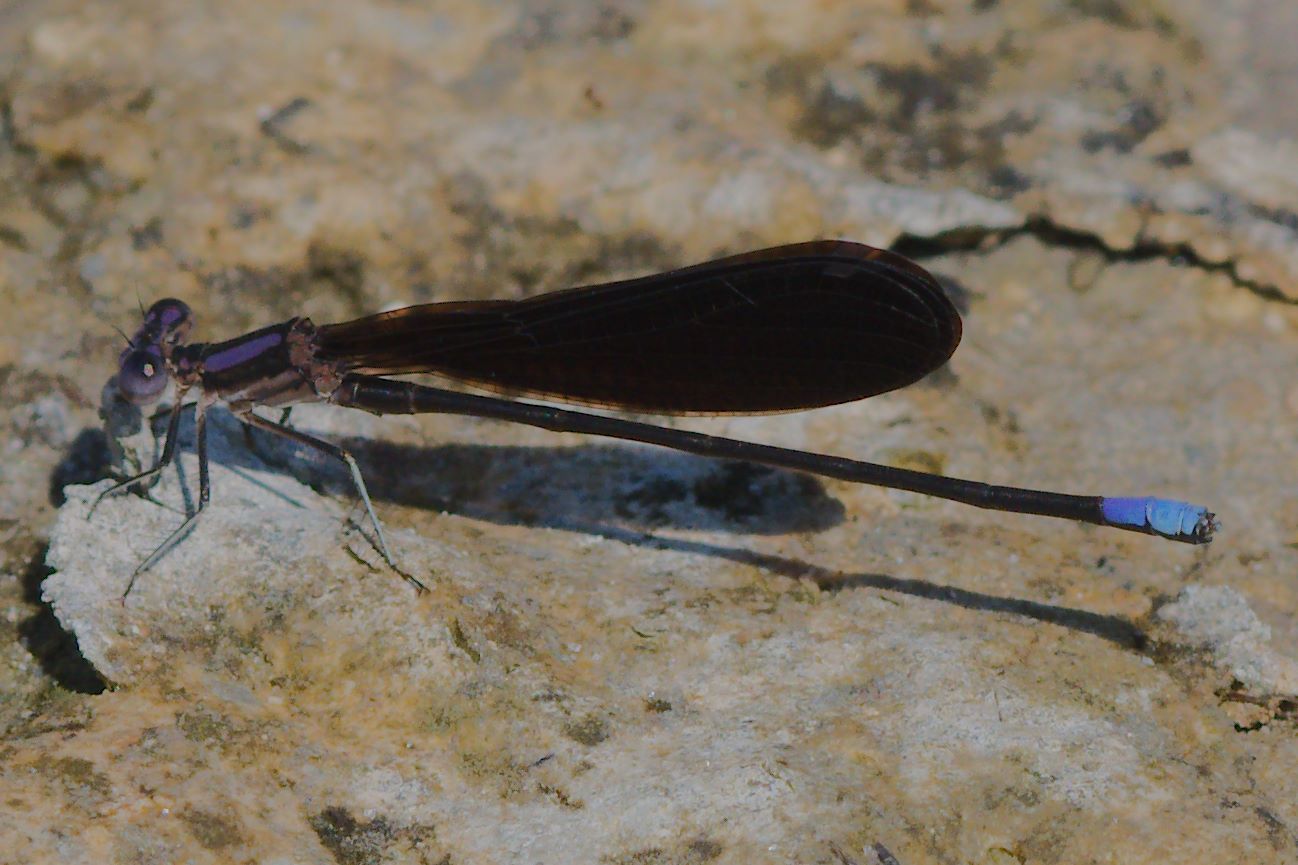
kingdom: Animalia
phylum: Arthropoda
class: Insecta
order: Odonata
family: Coenagrionidae
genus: Argia
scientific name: Argia fumipennis
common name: Variable dancer
